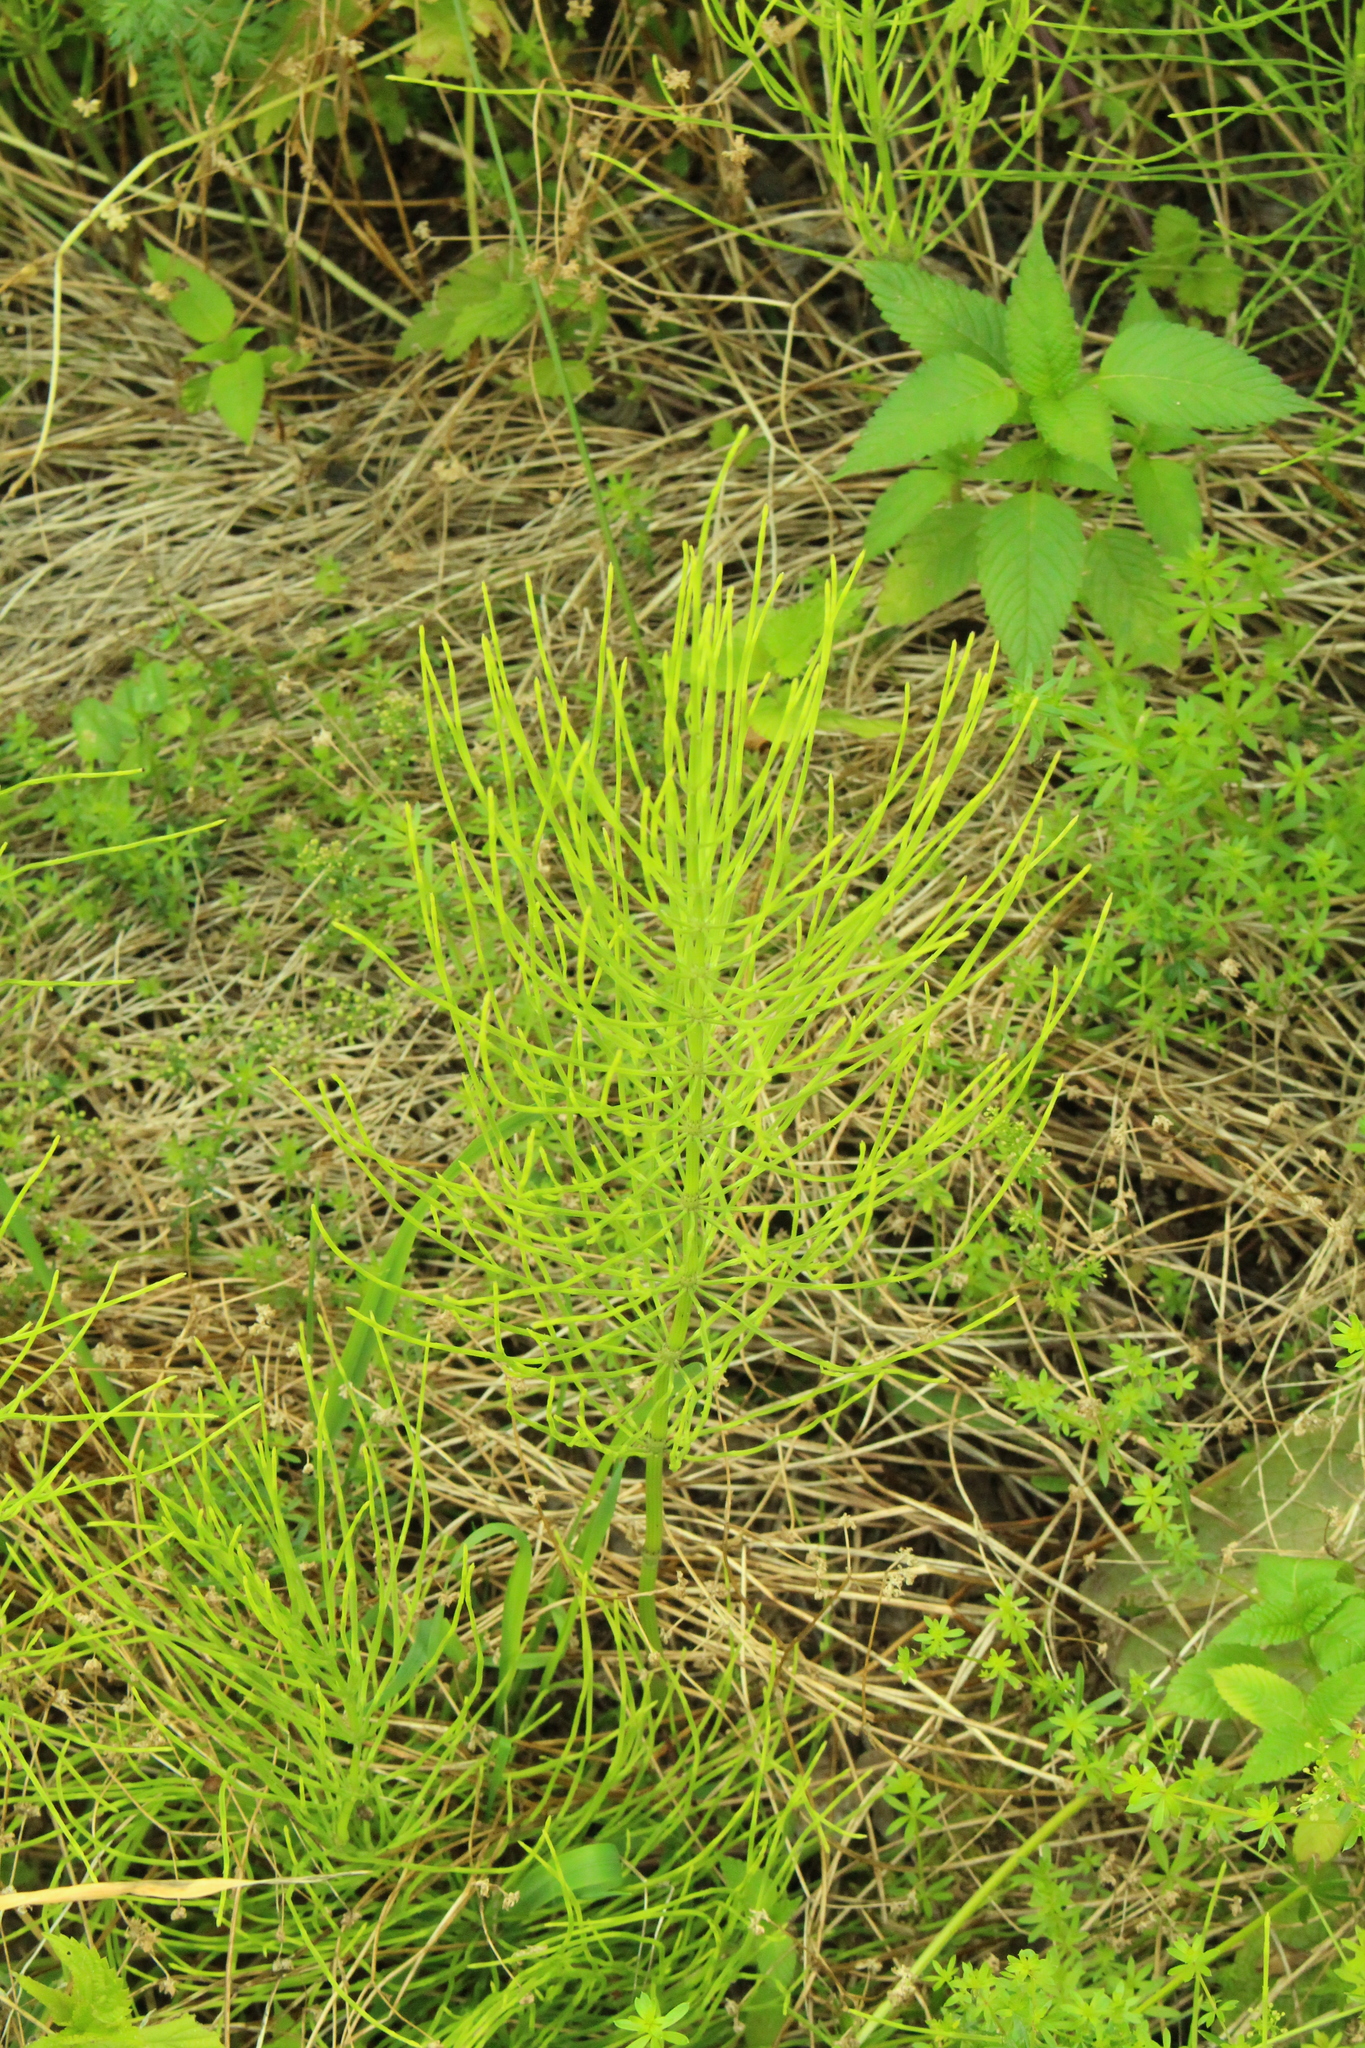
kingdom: Plantae
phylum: Tracheophyta
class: Polypodiopsida
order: Equisetales
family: Equisetaceae
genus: Equisetum
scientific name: Equisetum arvense
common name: Field horsetail
